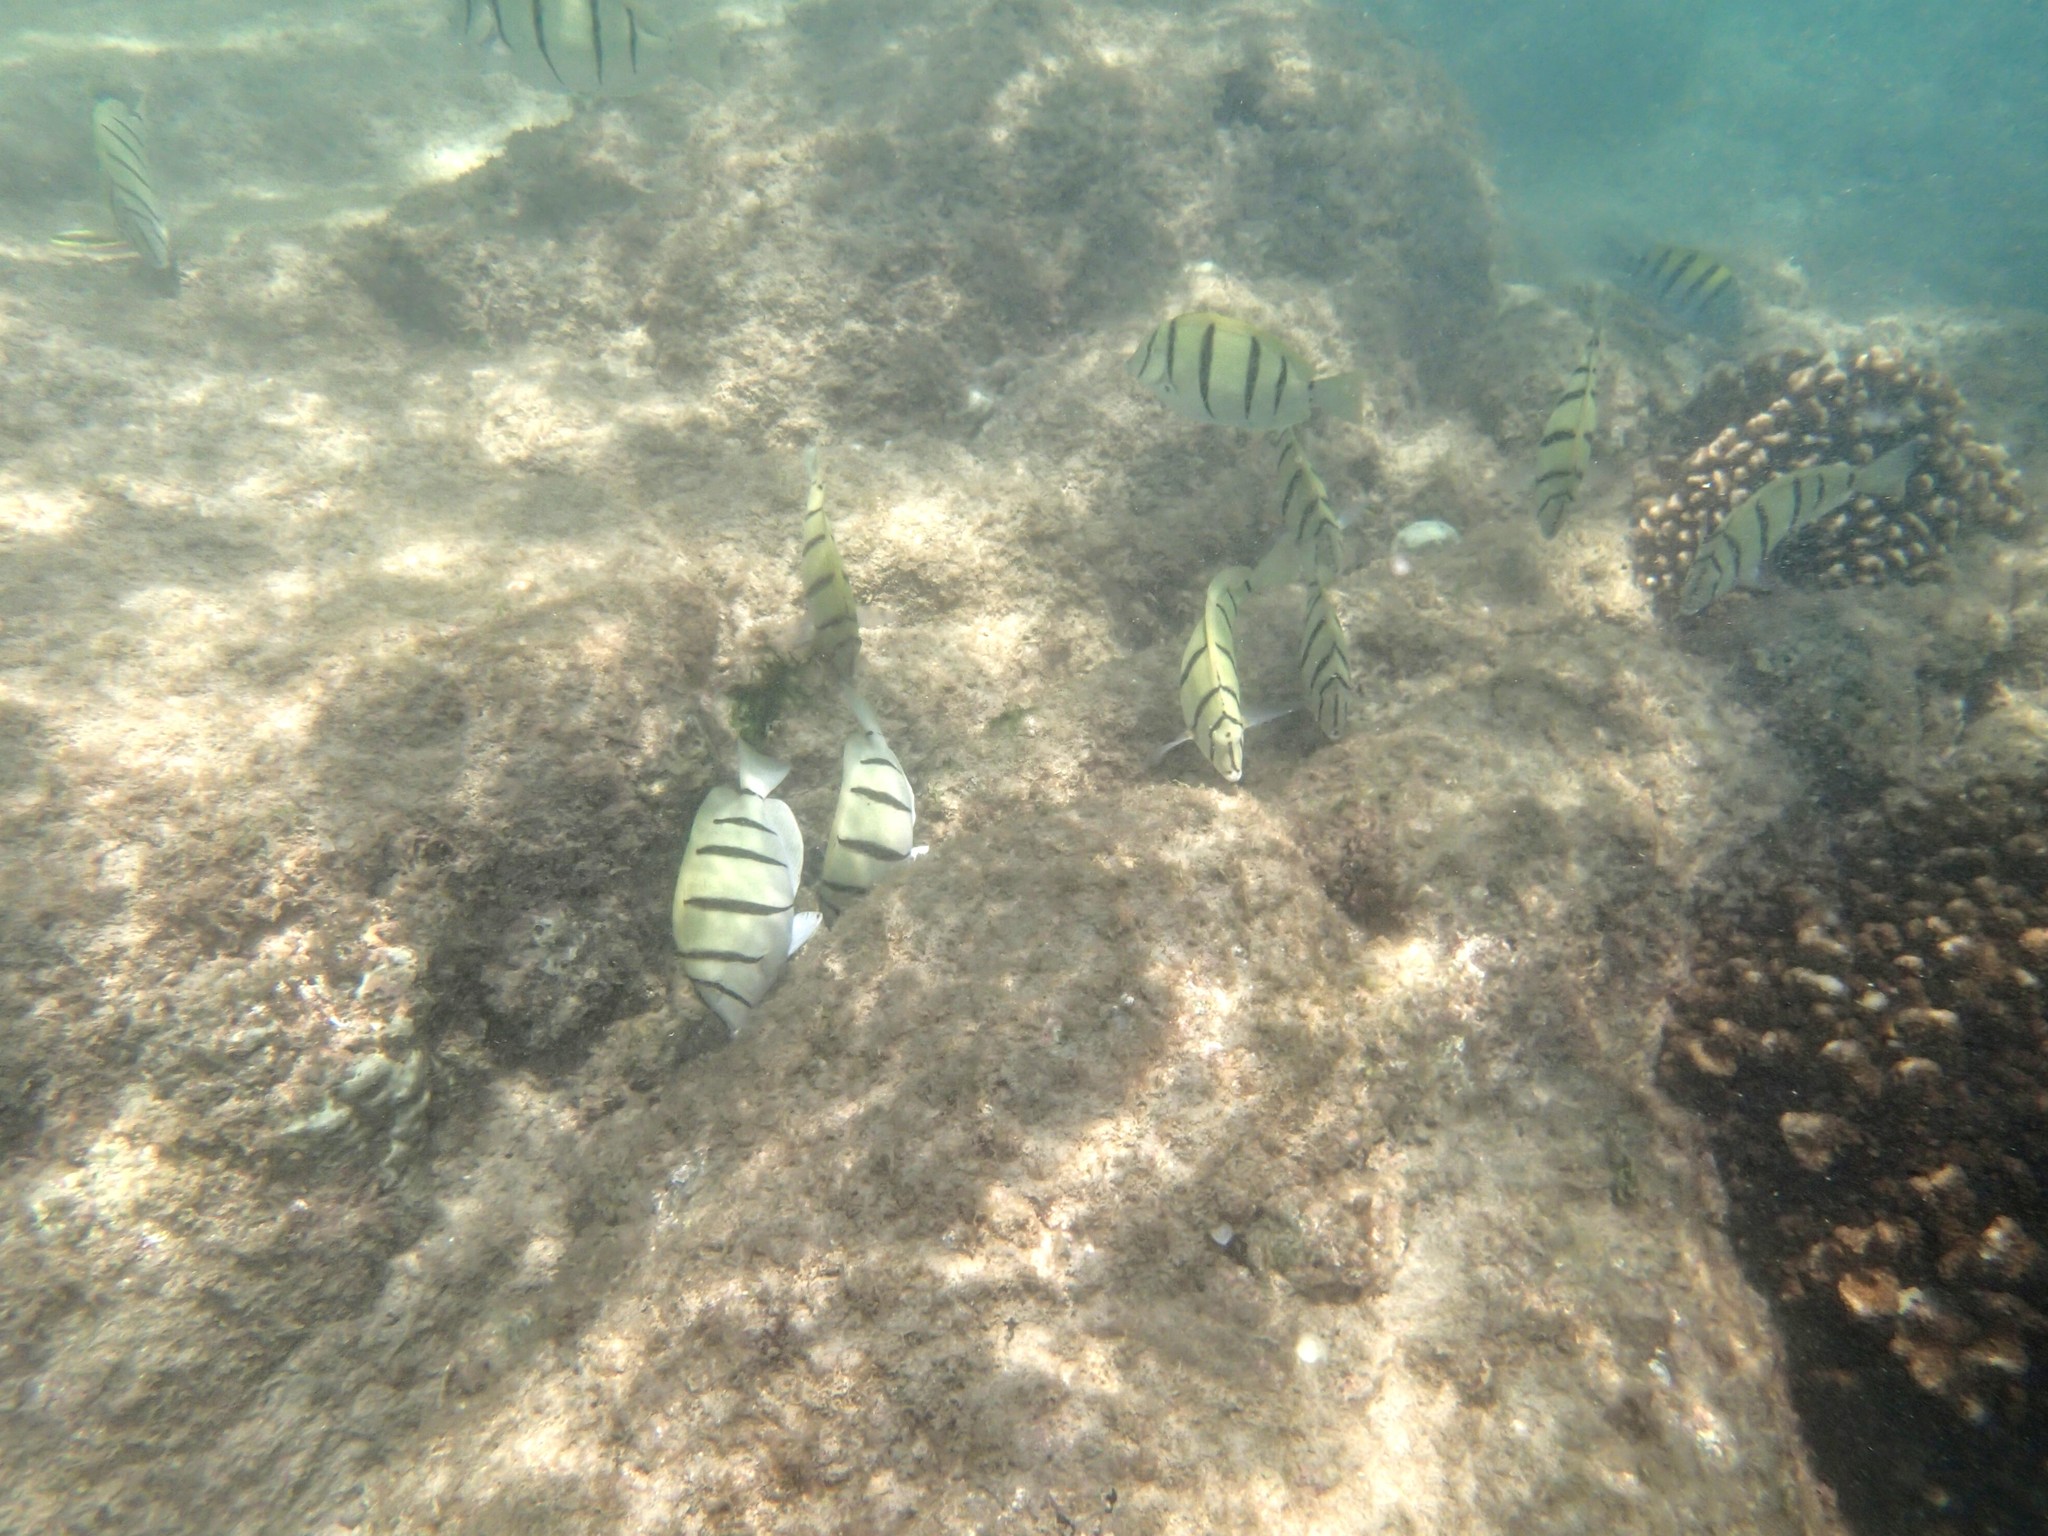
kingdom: Animalia
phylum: Chordata
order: Perciformes
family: Acanthuridae
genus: Acanthurus
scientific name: Acanthurus triostegus
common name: Convict surgeonfish
